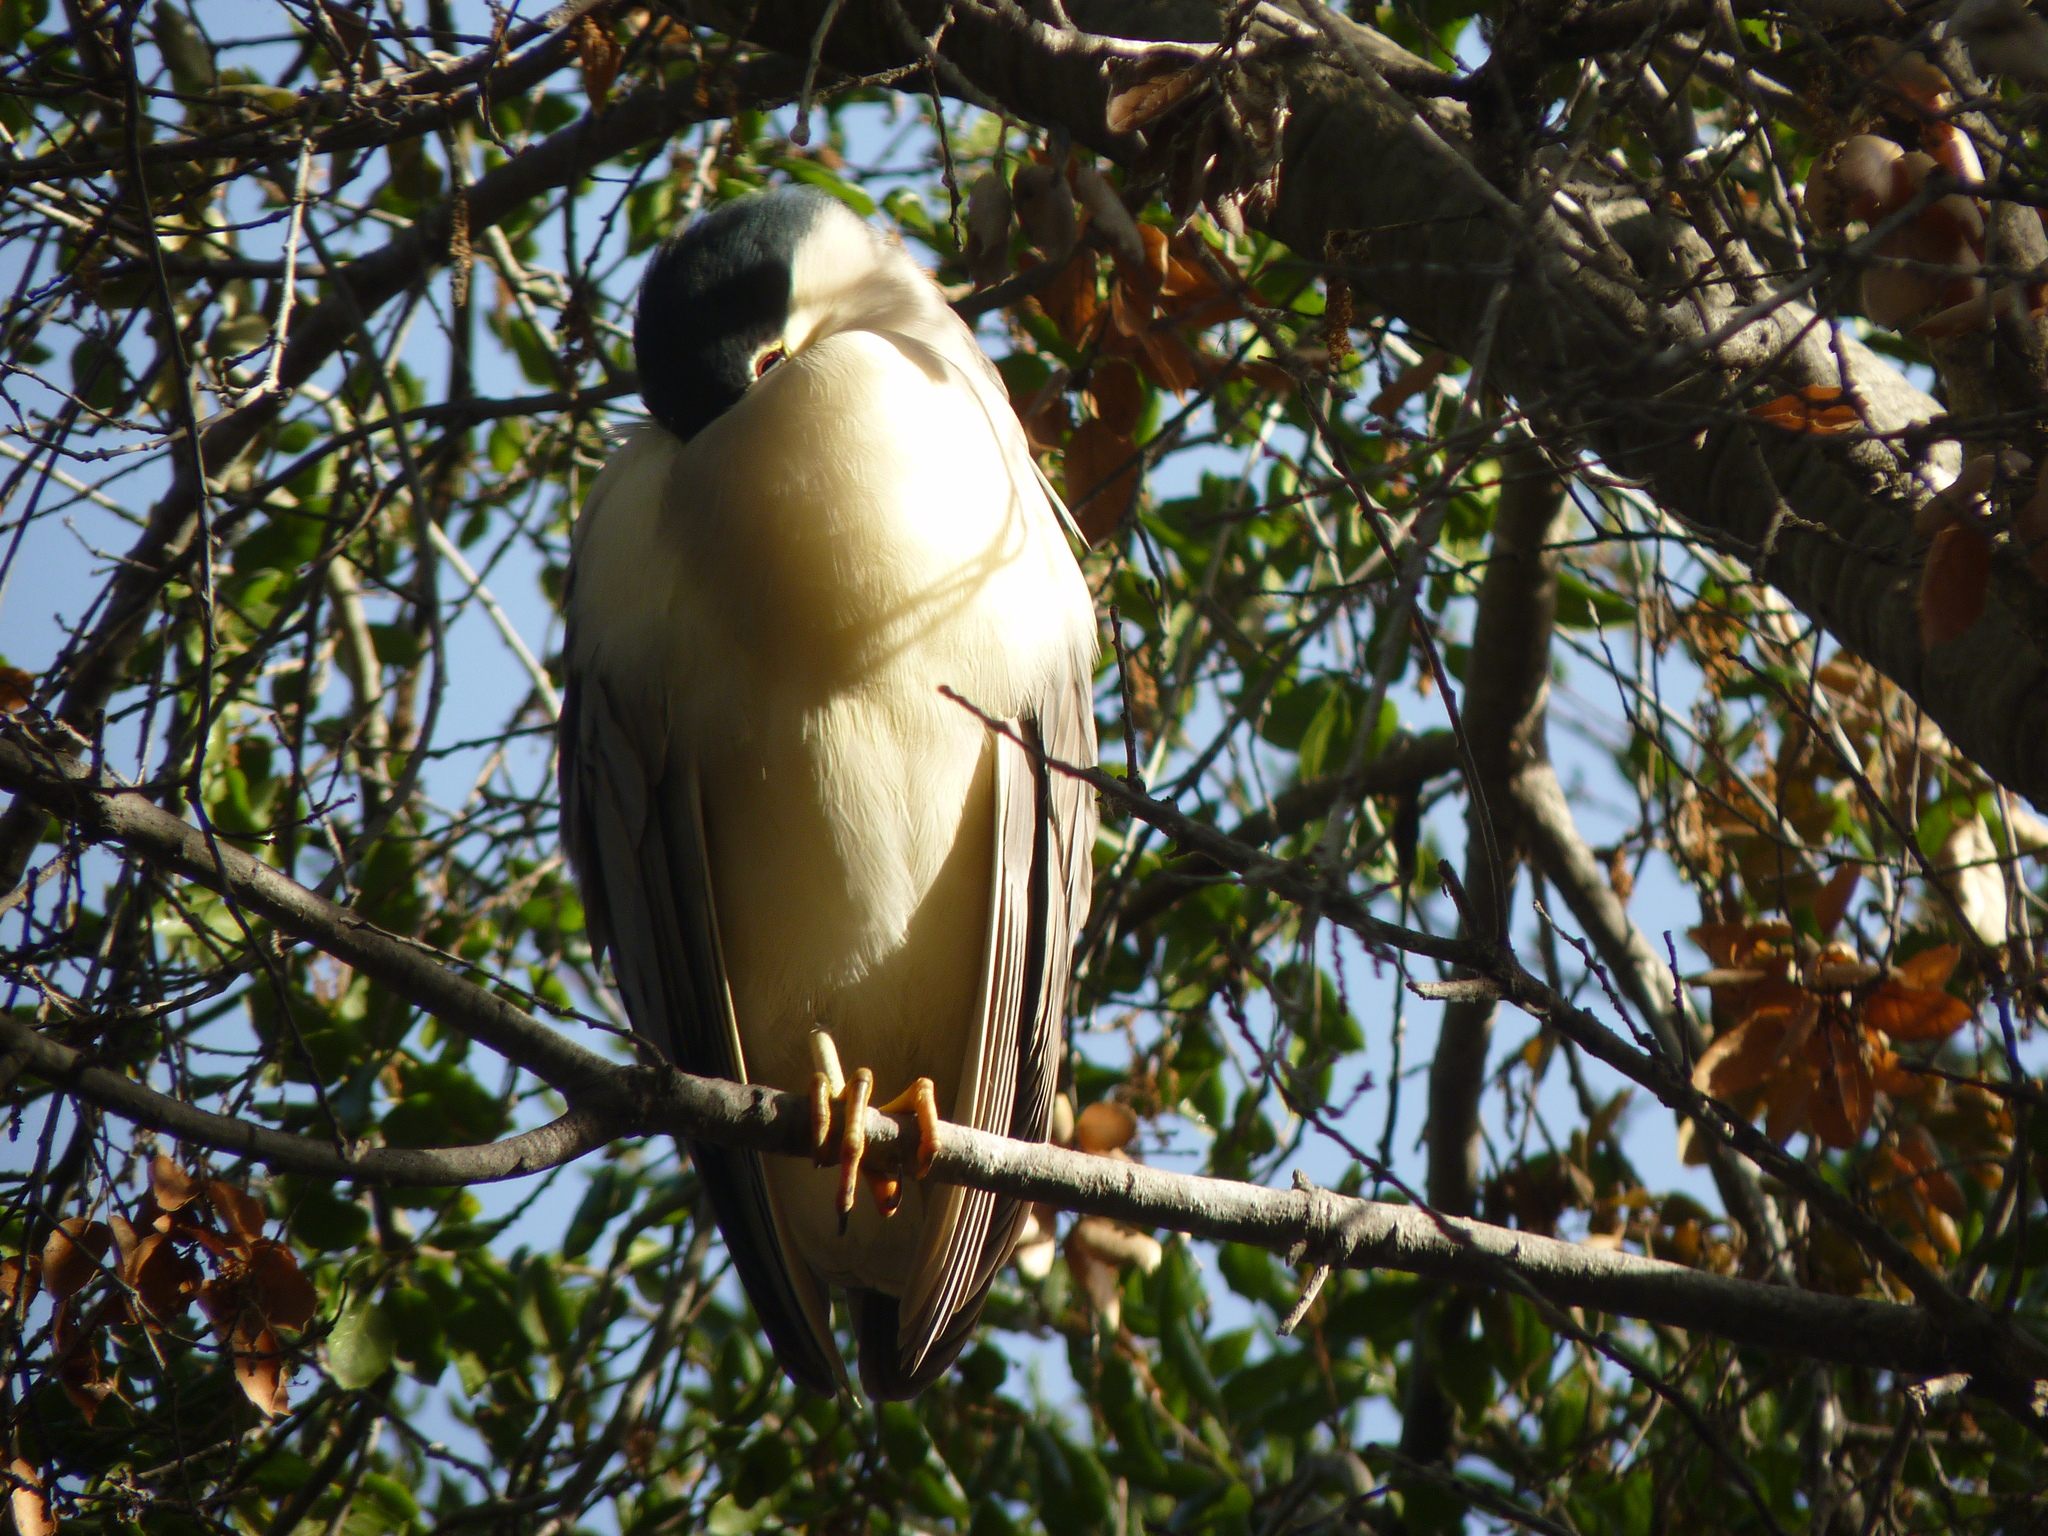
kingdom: Animalia
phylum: Chordata
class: Aves
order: Pelecaniformes
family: Ardeidae
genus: Nycticorax
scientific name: Nycticorax nycticorax
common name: Black-crowned night heron
